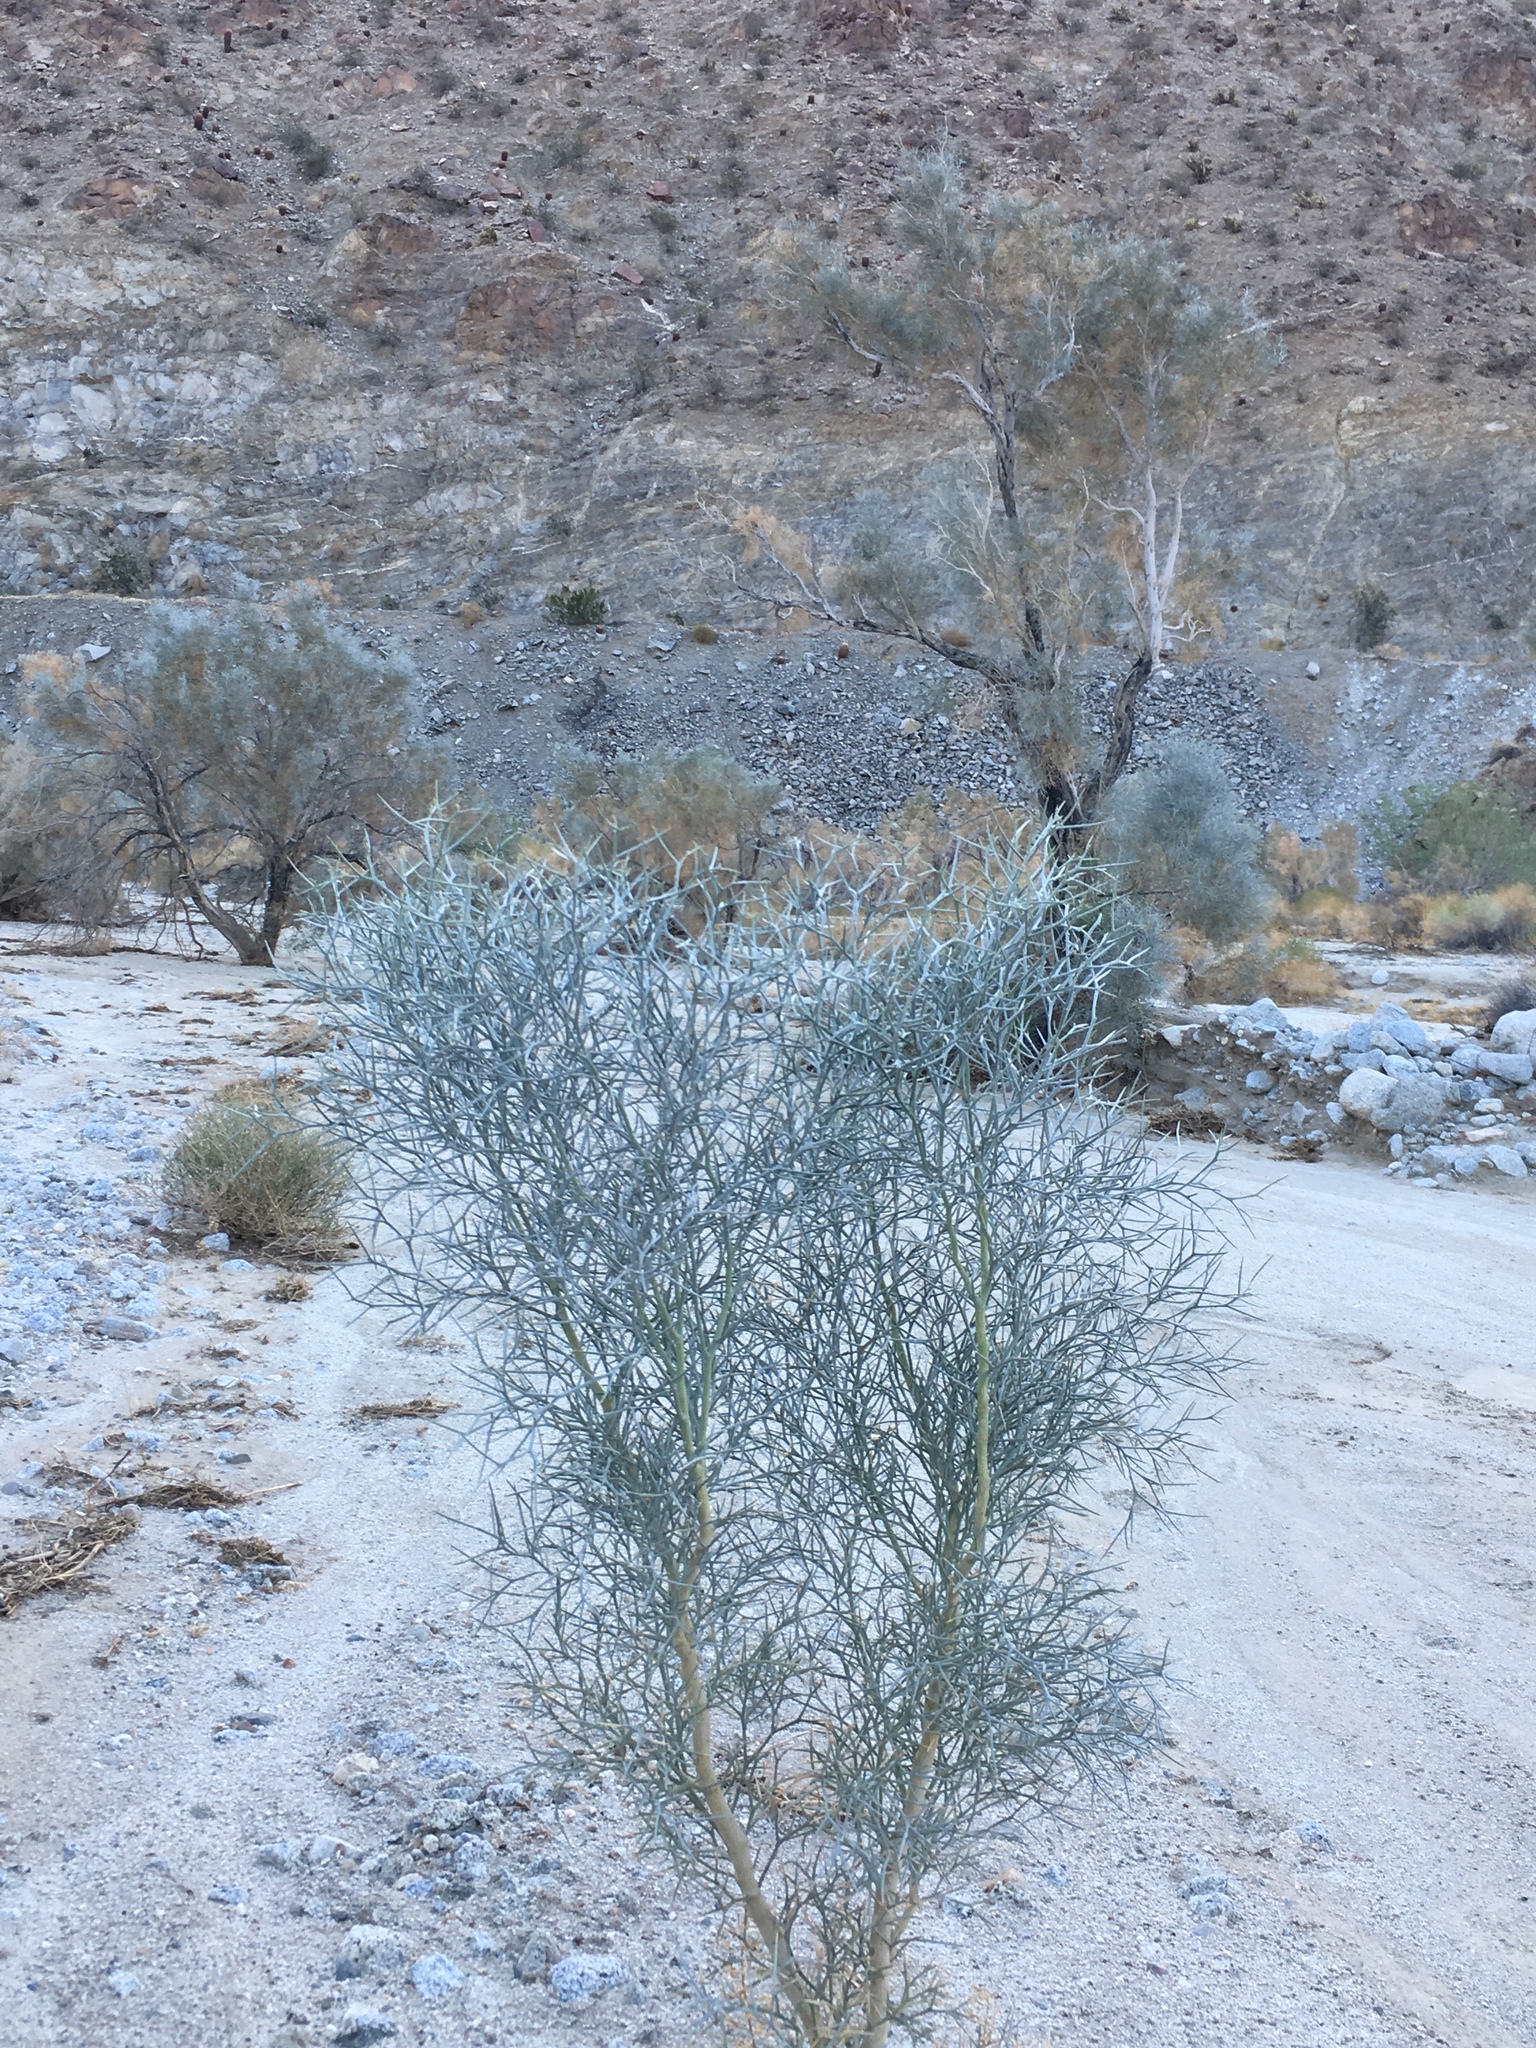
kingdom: Plantae
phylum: Tracheophyta
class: Magnoliopsida
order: Fabales
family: Fabaceae
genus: Psorothamnus
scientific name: Psorothamnus spinosus
